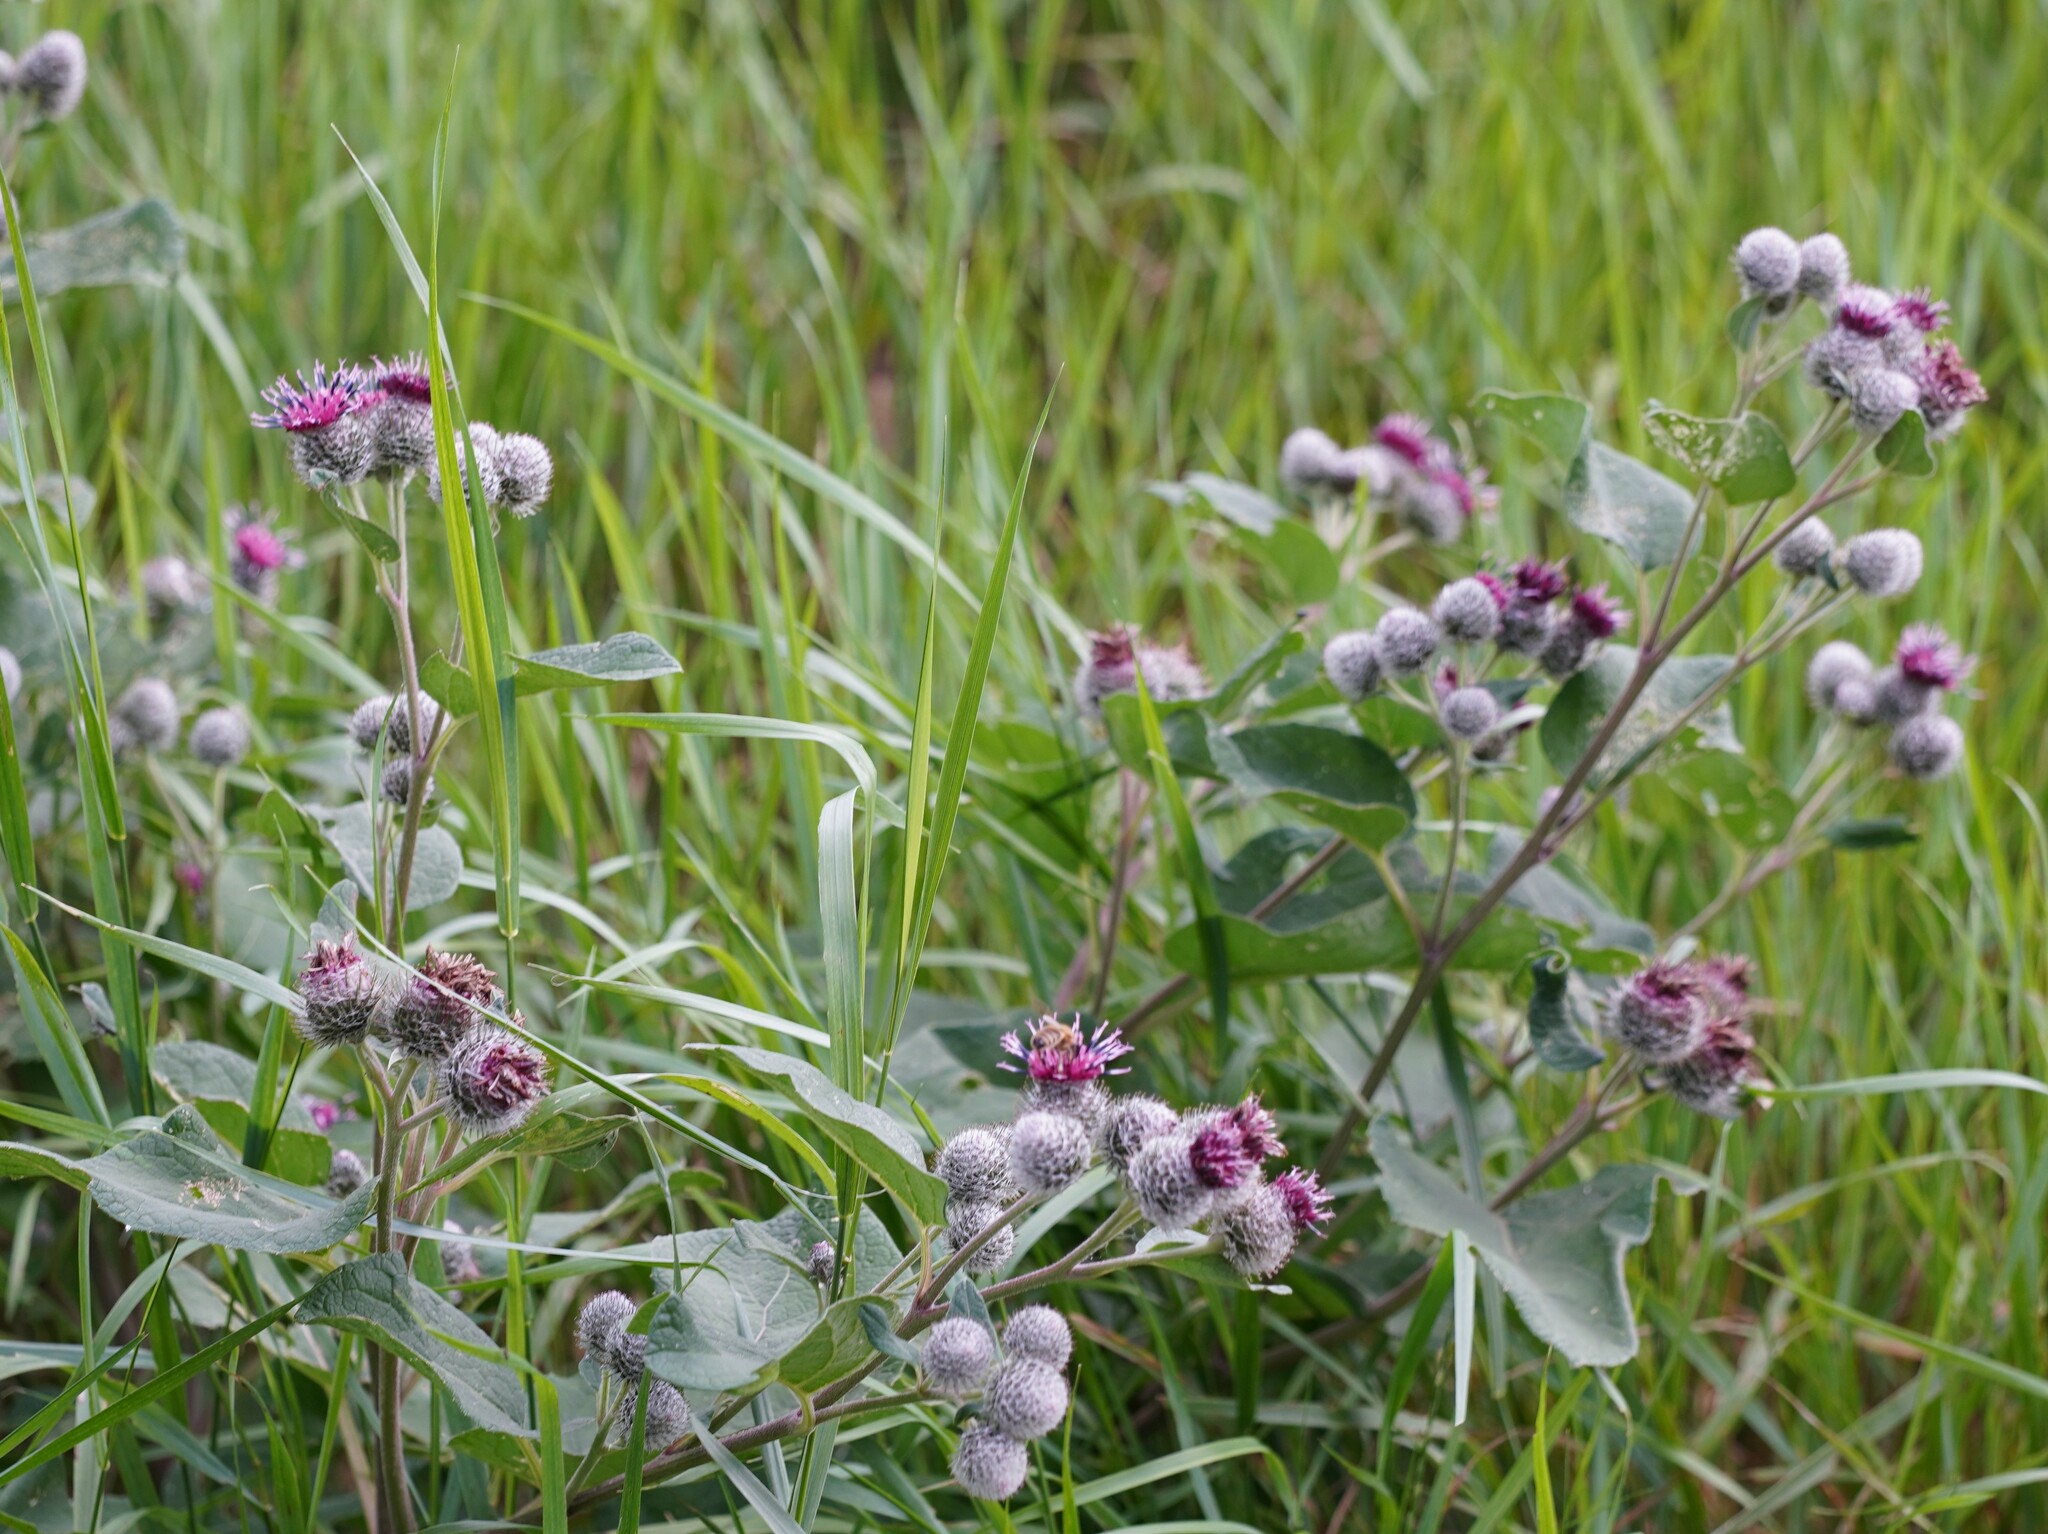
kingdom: Plantae
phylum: Tracheophyta
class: Magnoliopsida
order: Asterales
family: Asteraceae
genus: Arctium
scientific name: Arctium tomentosum
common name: Woolly burdock
